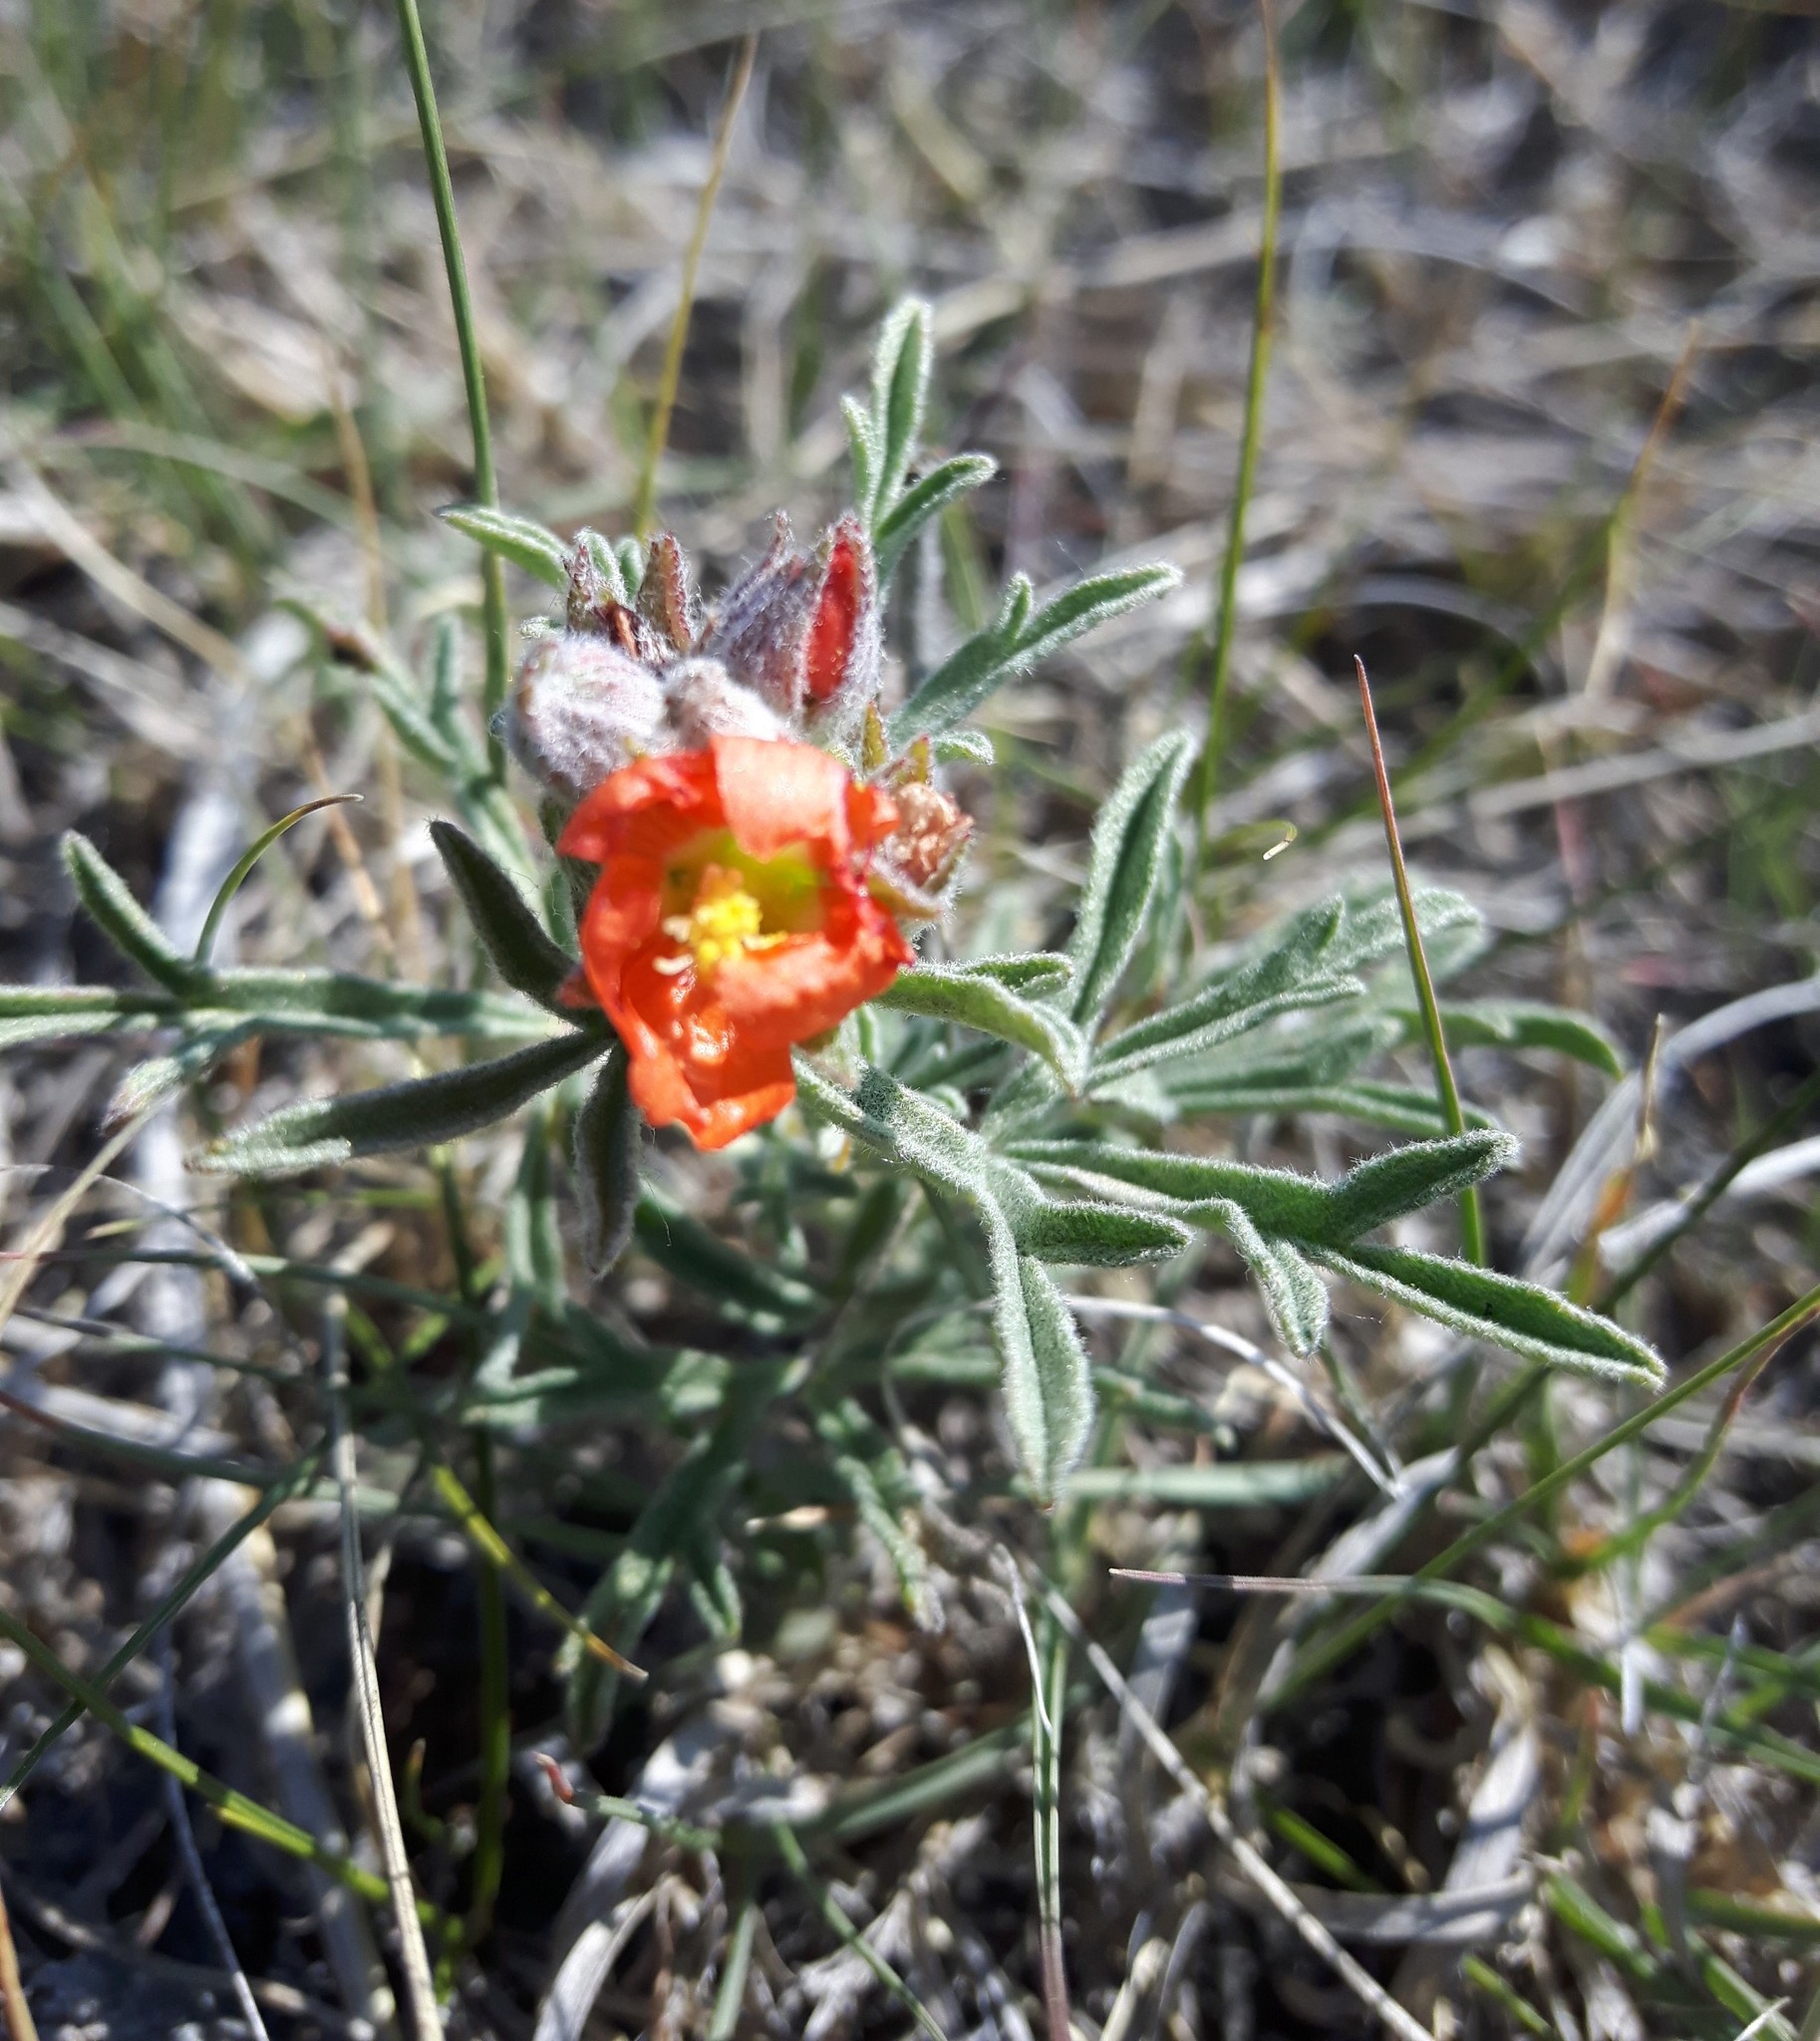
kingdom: Plantae
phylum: Tracheophyta
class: Magnoliopsida
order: Malvales
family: Malvaceae
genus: Sphaeralcea
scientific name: Sphaeralcea coccinea
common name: Moss-rose
